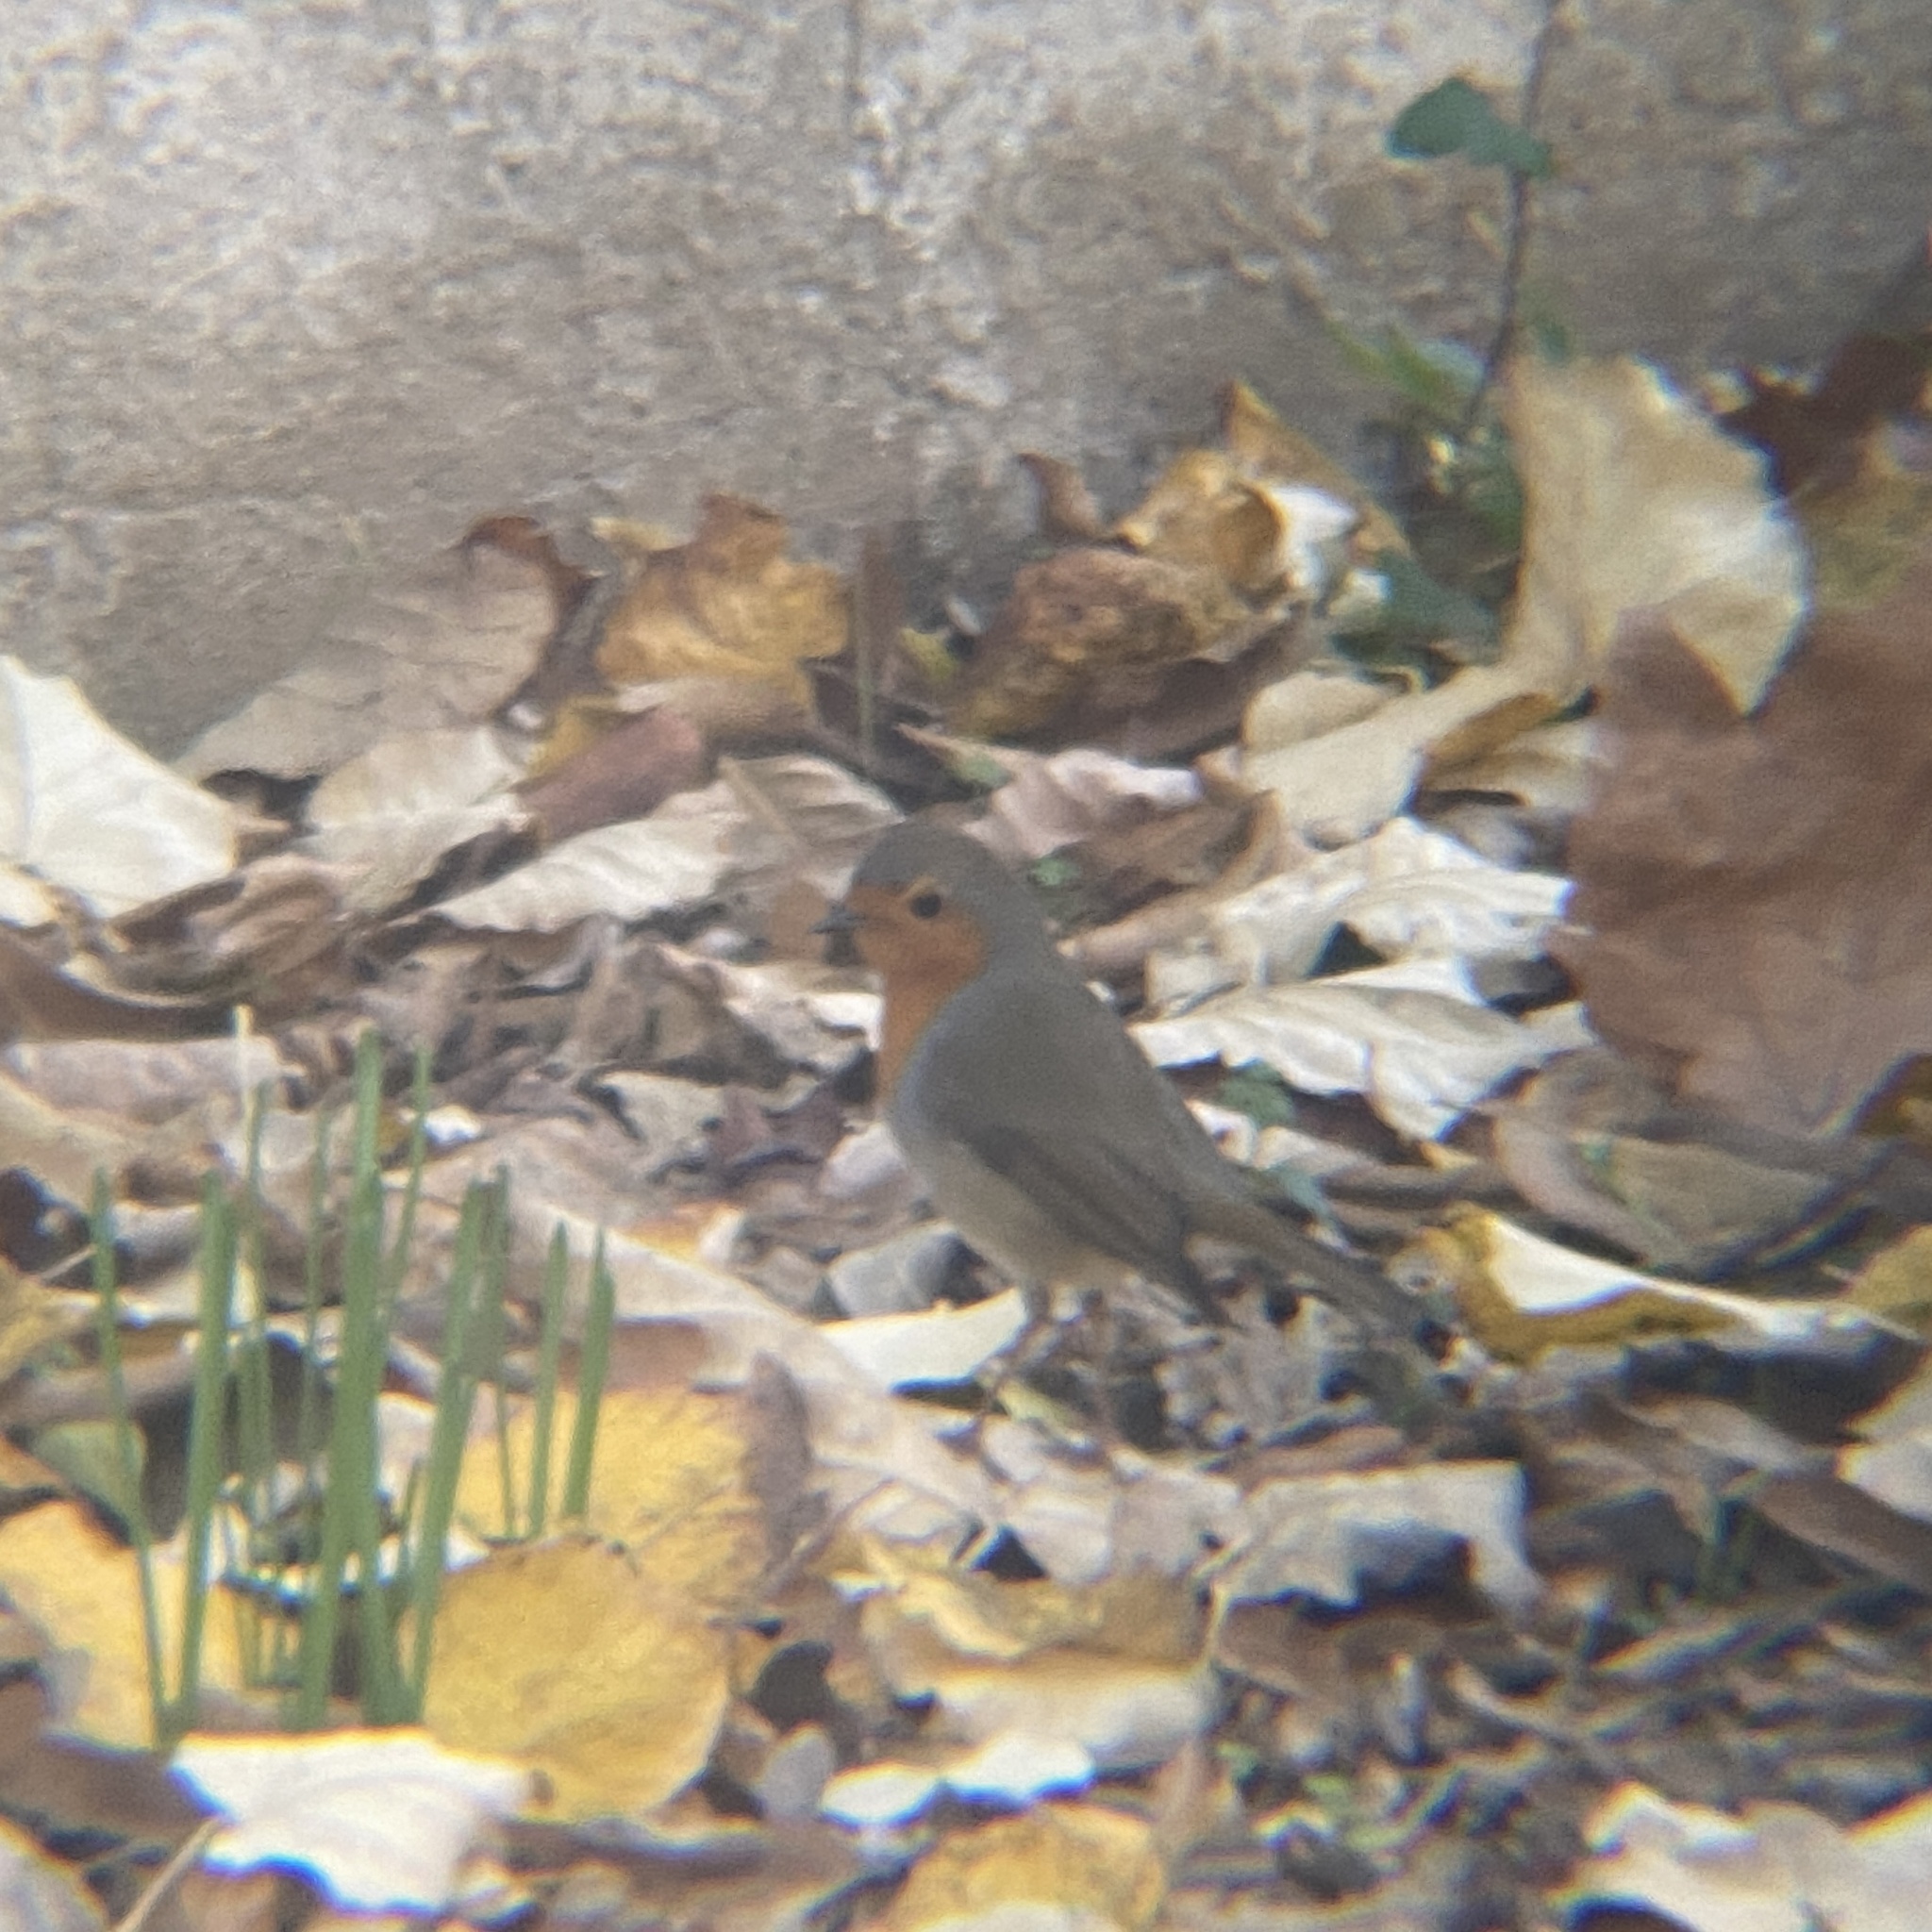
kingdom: Animalia
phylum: Chordata
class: Aves
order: Passeriformes
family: Muscicapidae
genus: Erithacus
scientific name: Erithacus rubecula
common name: European robin
